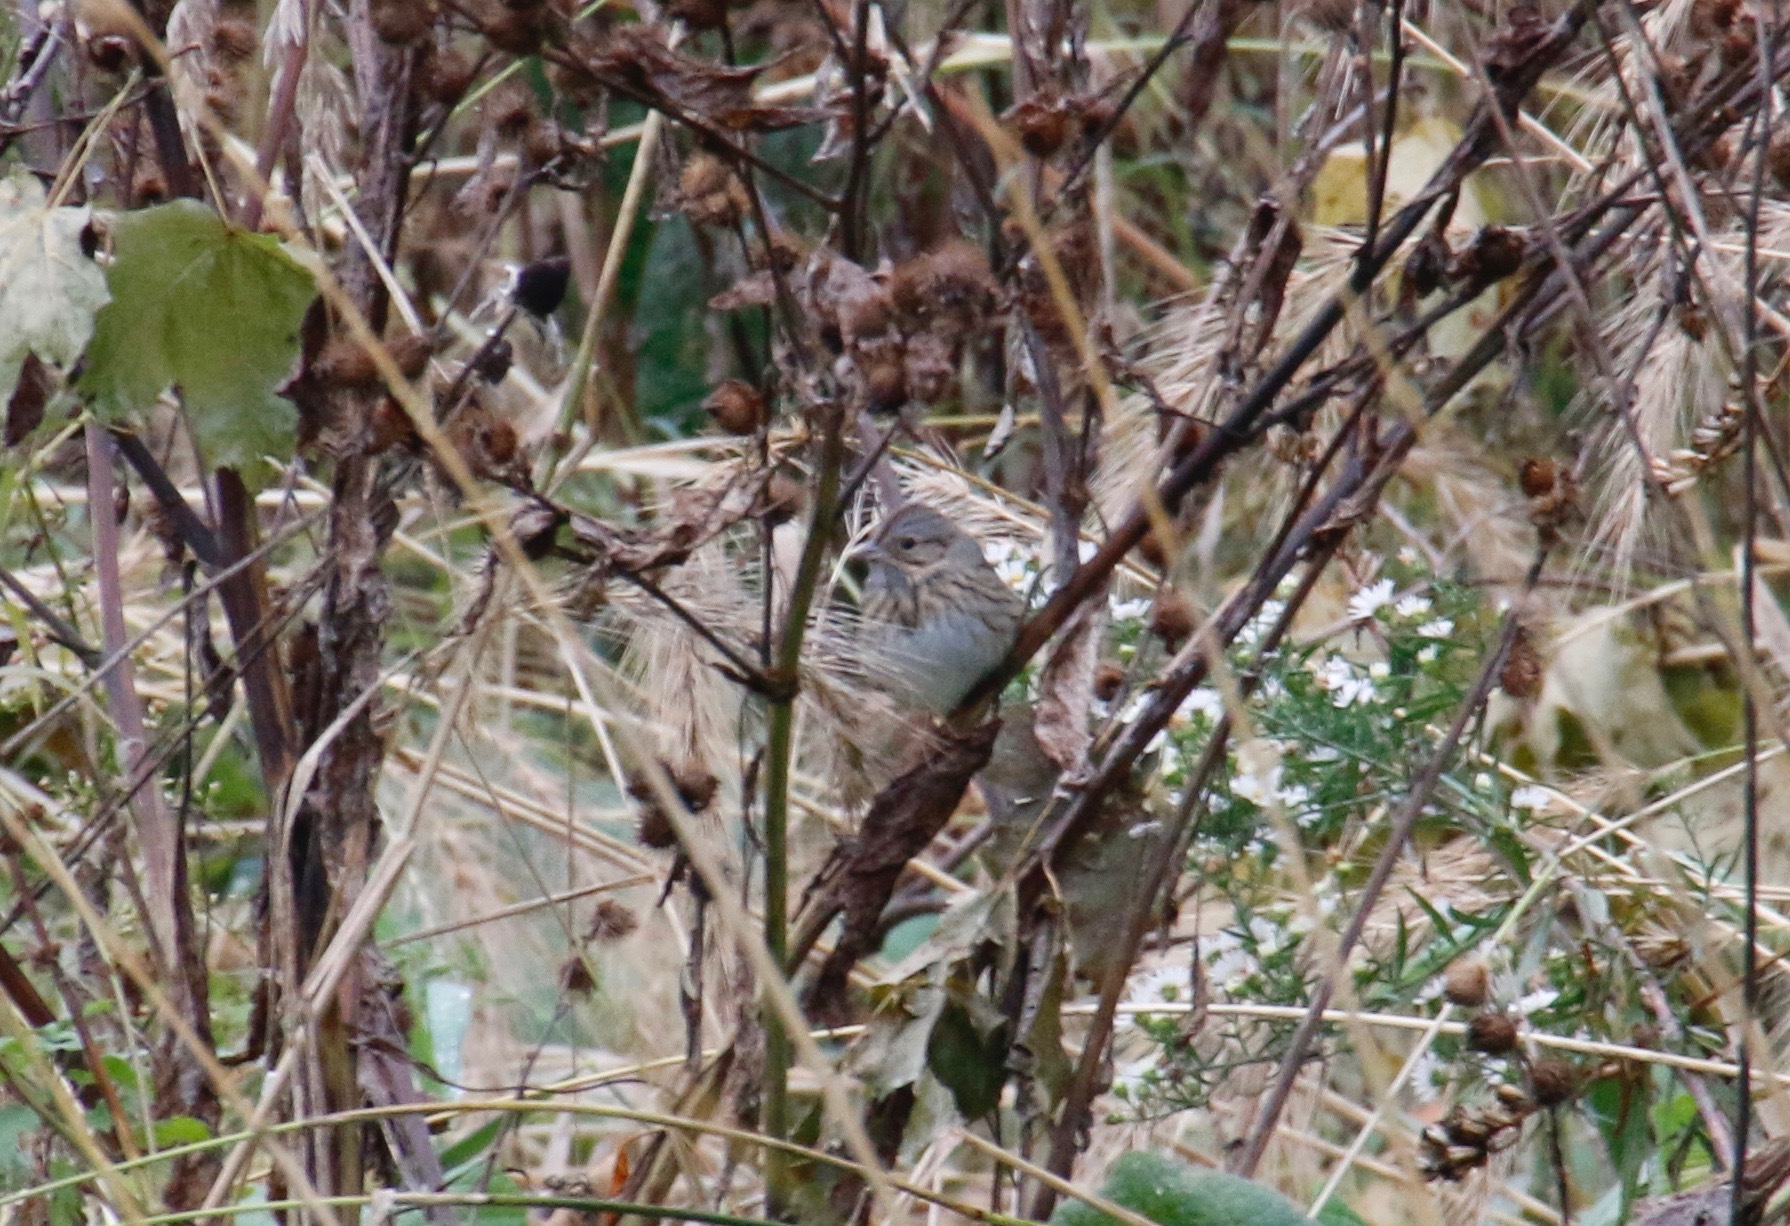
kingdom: Animalia
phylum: Chordata
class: Aves
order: Passeriformes
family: Passerellidae
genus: Melospiza
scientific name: Melospiza lincolnii
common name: Lincoln's sparrow
